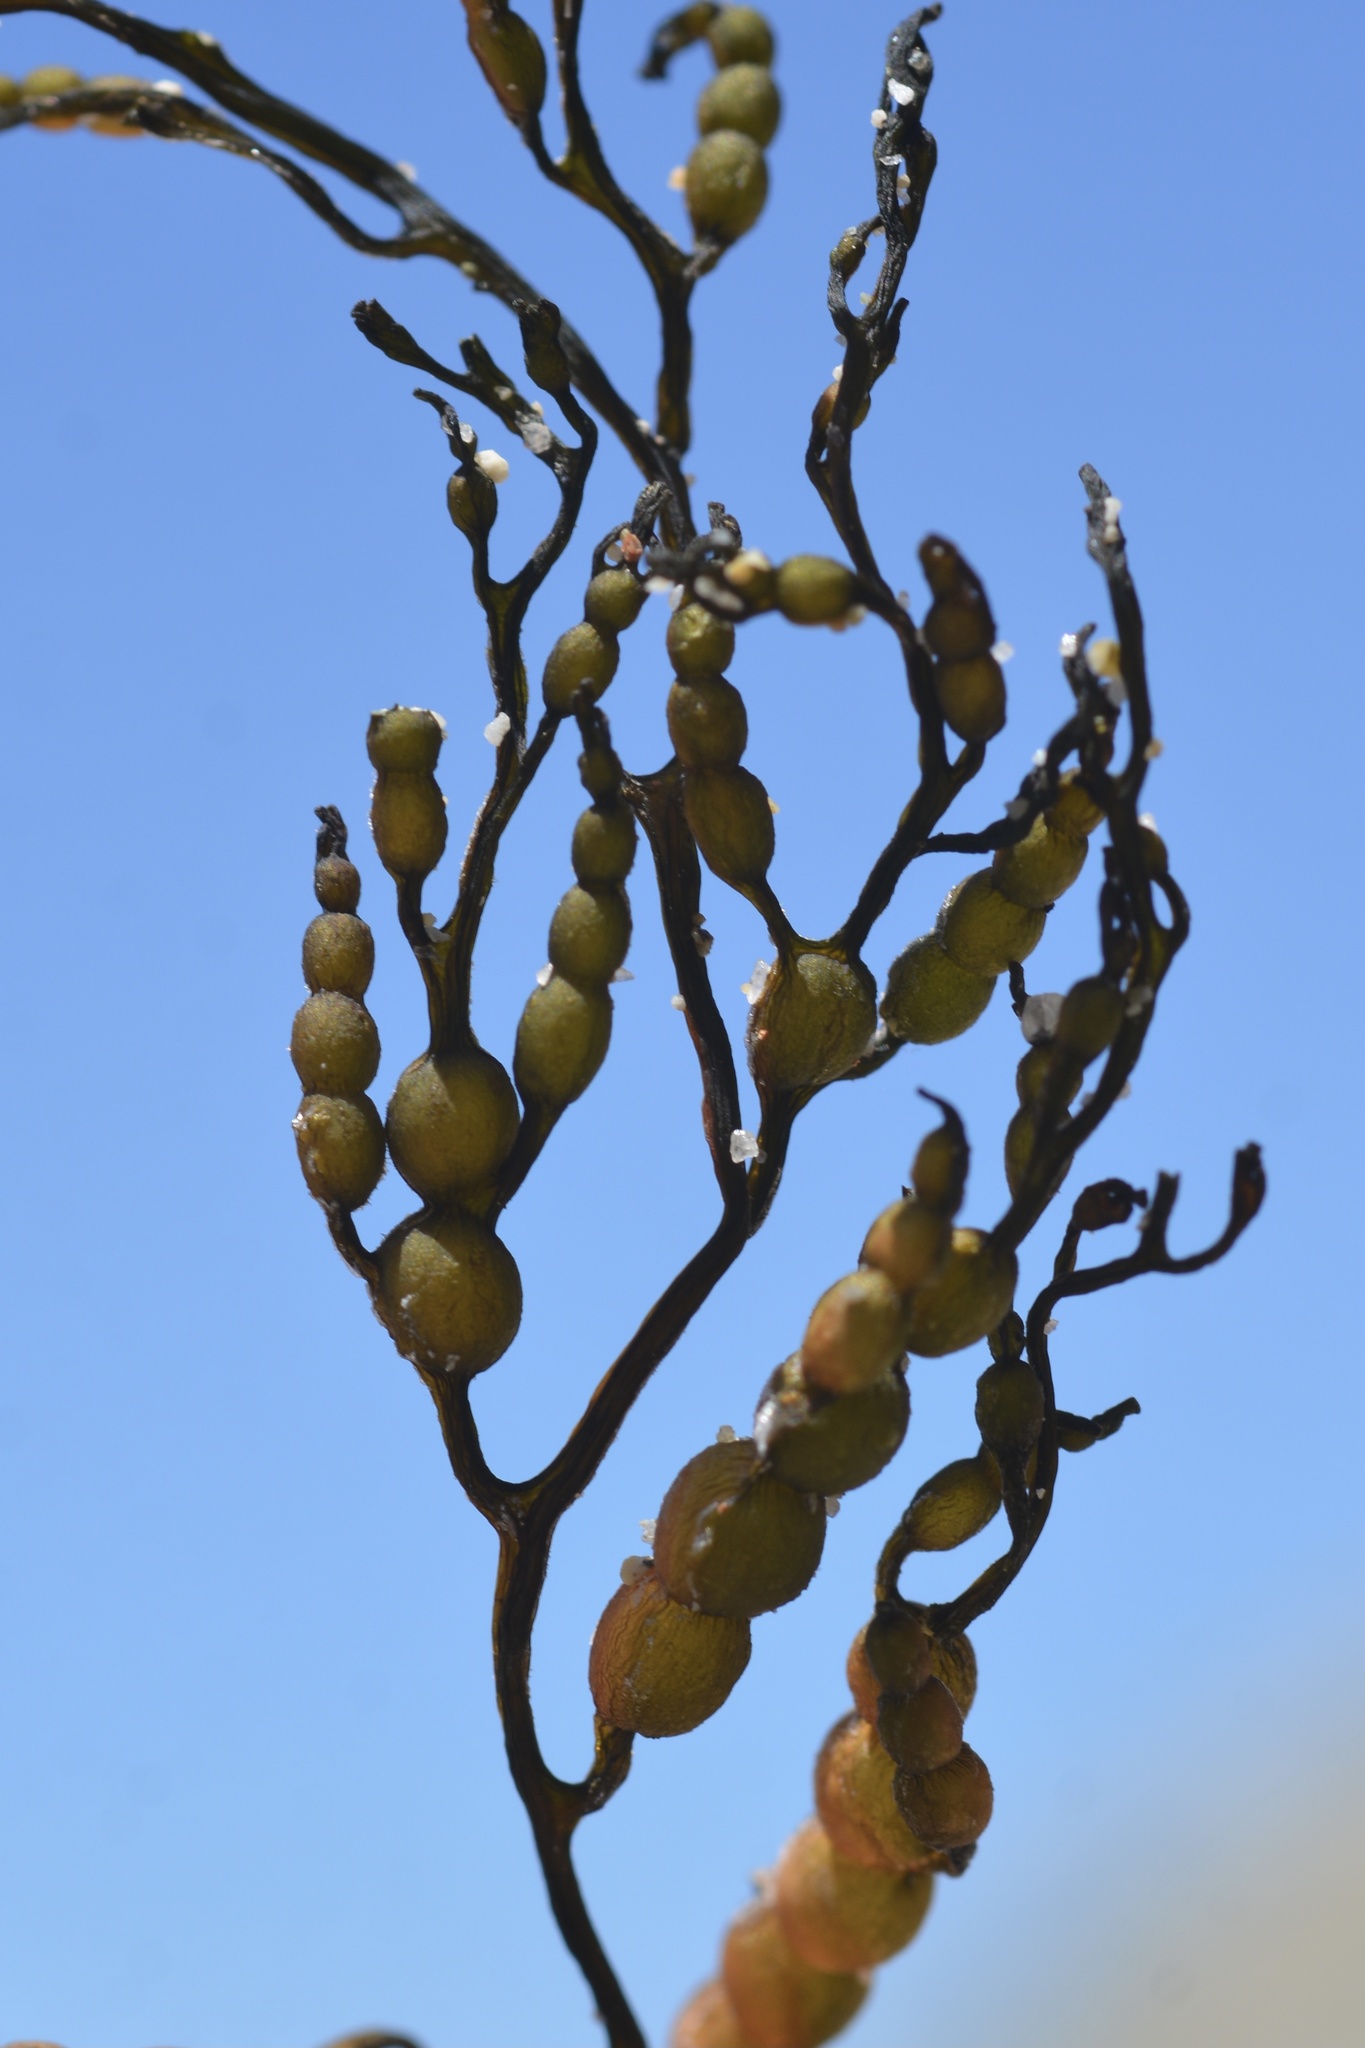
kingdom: Chromista
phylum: Ochrophyta
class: Phaeophyceae
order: Fucales
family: Sargassaceae
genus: Stephanocystis
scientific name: Stephanocystis
